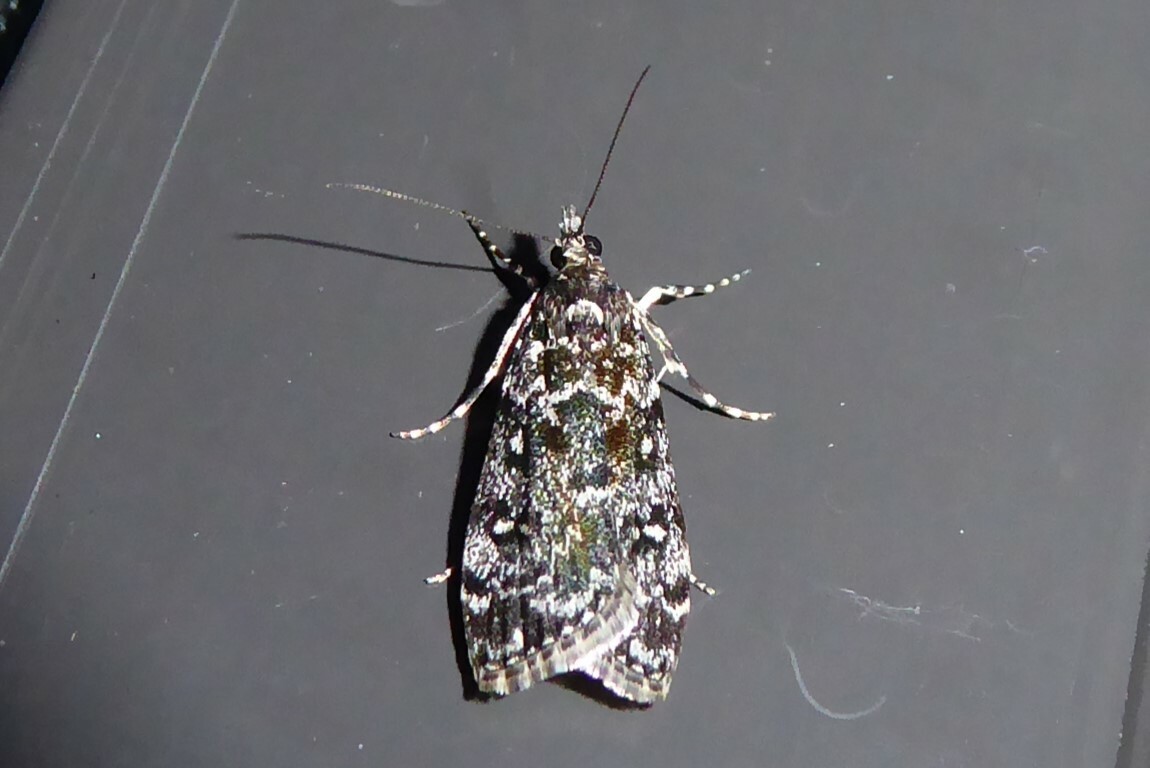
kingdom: Animalia
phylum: Arthropoda
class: Insecta
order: Lepidoptera
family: Crambidae
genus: Eudonia
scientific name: Eudonia philerga
